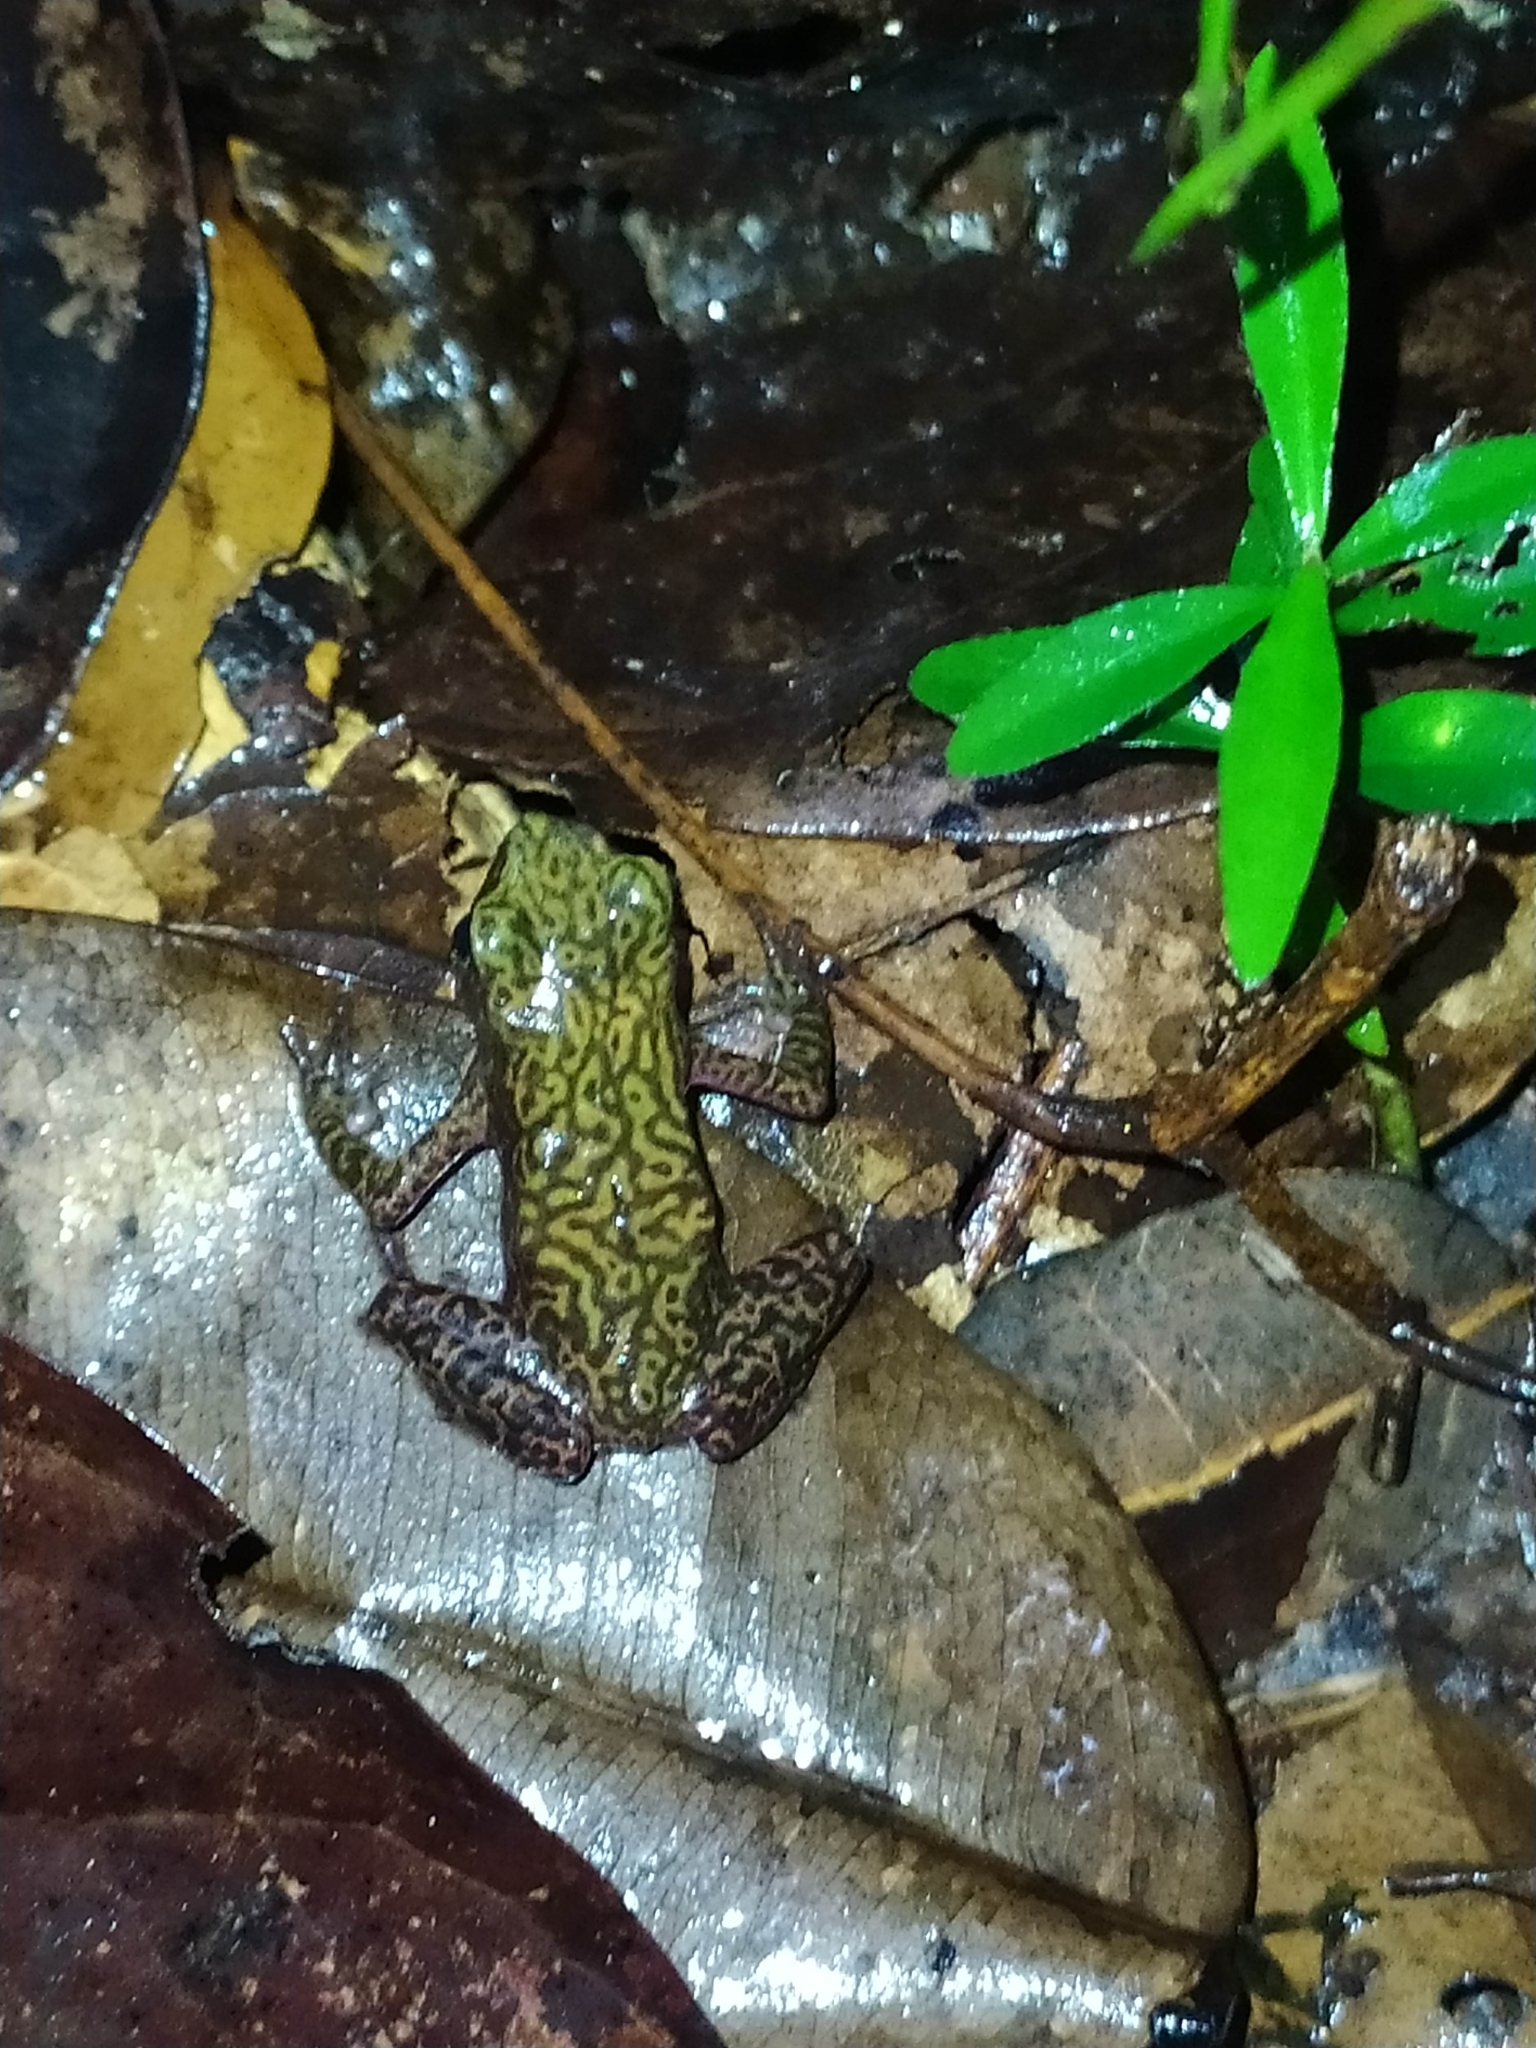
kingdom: Animalia
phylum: Chordata
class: Amphibia
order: Anura
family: Bufonidae
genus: Atelopus
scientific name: Atelopus flavescens
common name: Cayenne stubfoot toad
